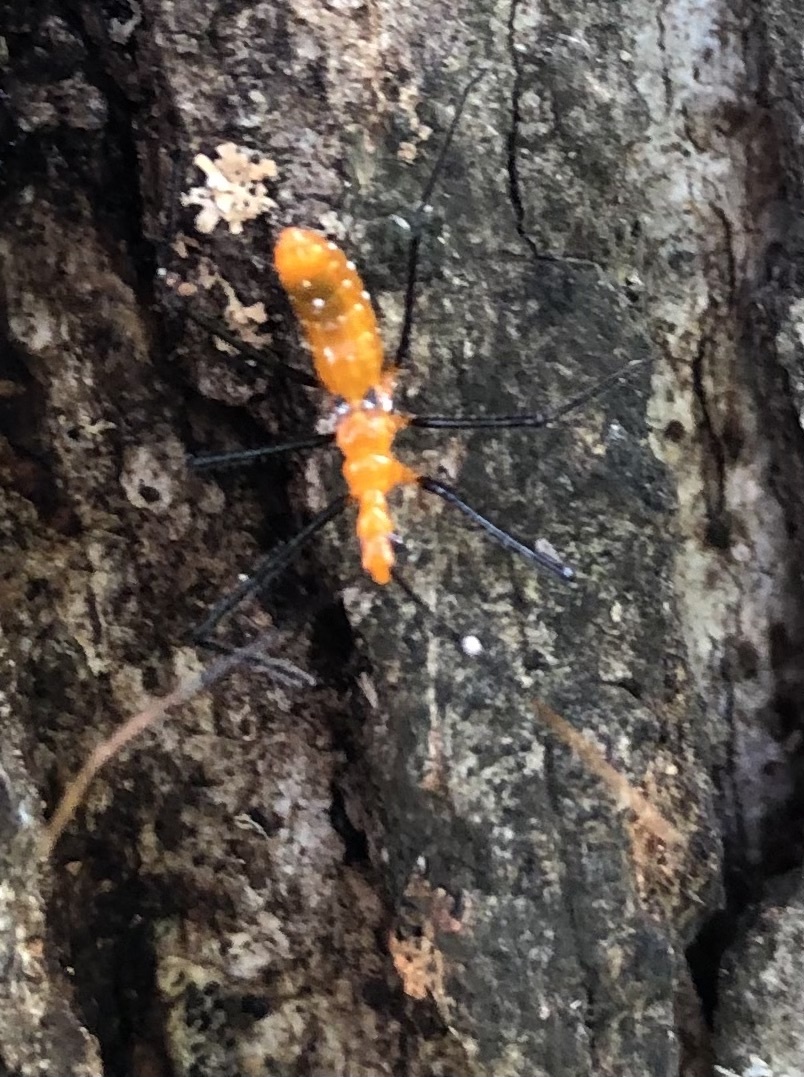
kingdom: Animalia
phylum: Arthropoda
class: Insecta
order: Hemiptera
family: Reduviidae
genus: Zelus
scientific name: Zelus longipes
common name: Milkweed assassin bug
